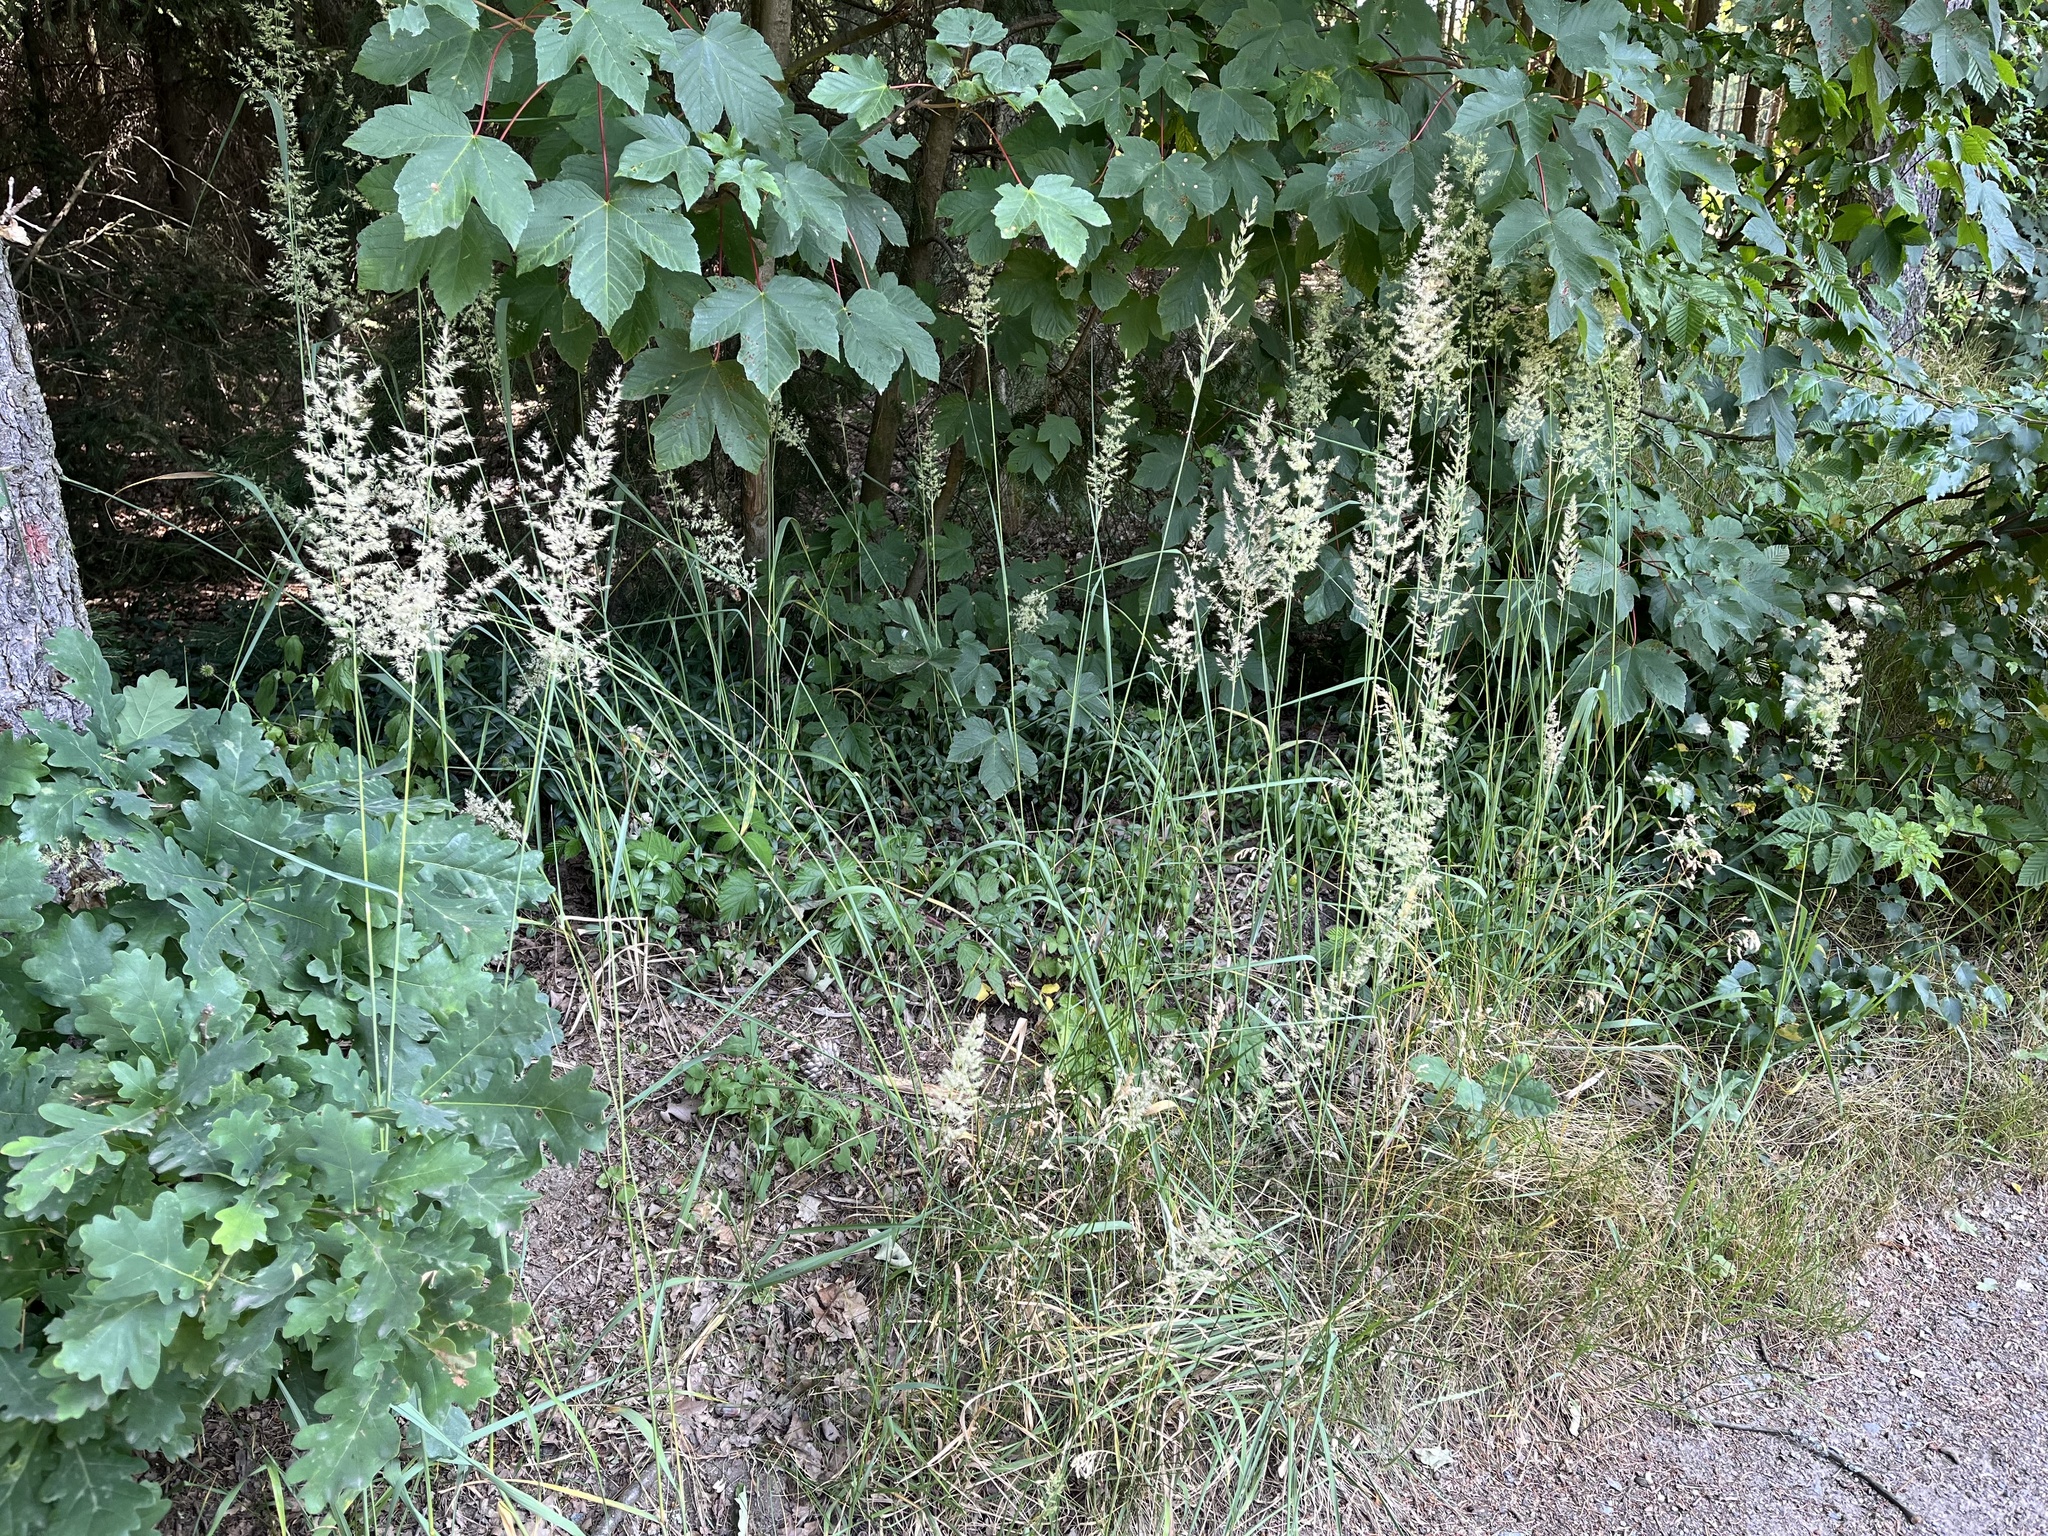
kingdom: Plantae
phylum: Tracheophyta
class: Liliopsida
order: Poales
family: Poaceae
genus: Calamagrostis
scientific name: Calamagrostis epigejos
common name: Wood small-reed
